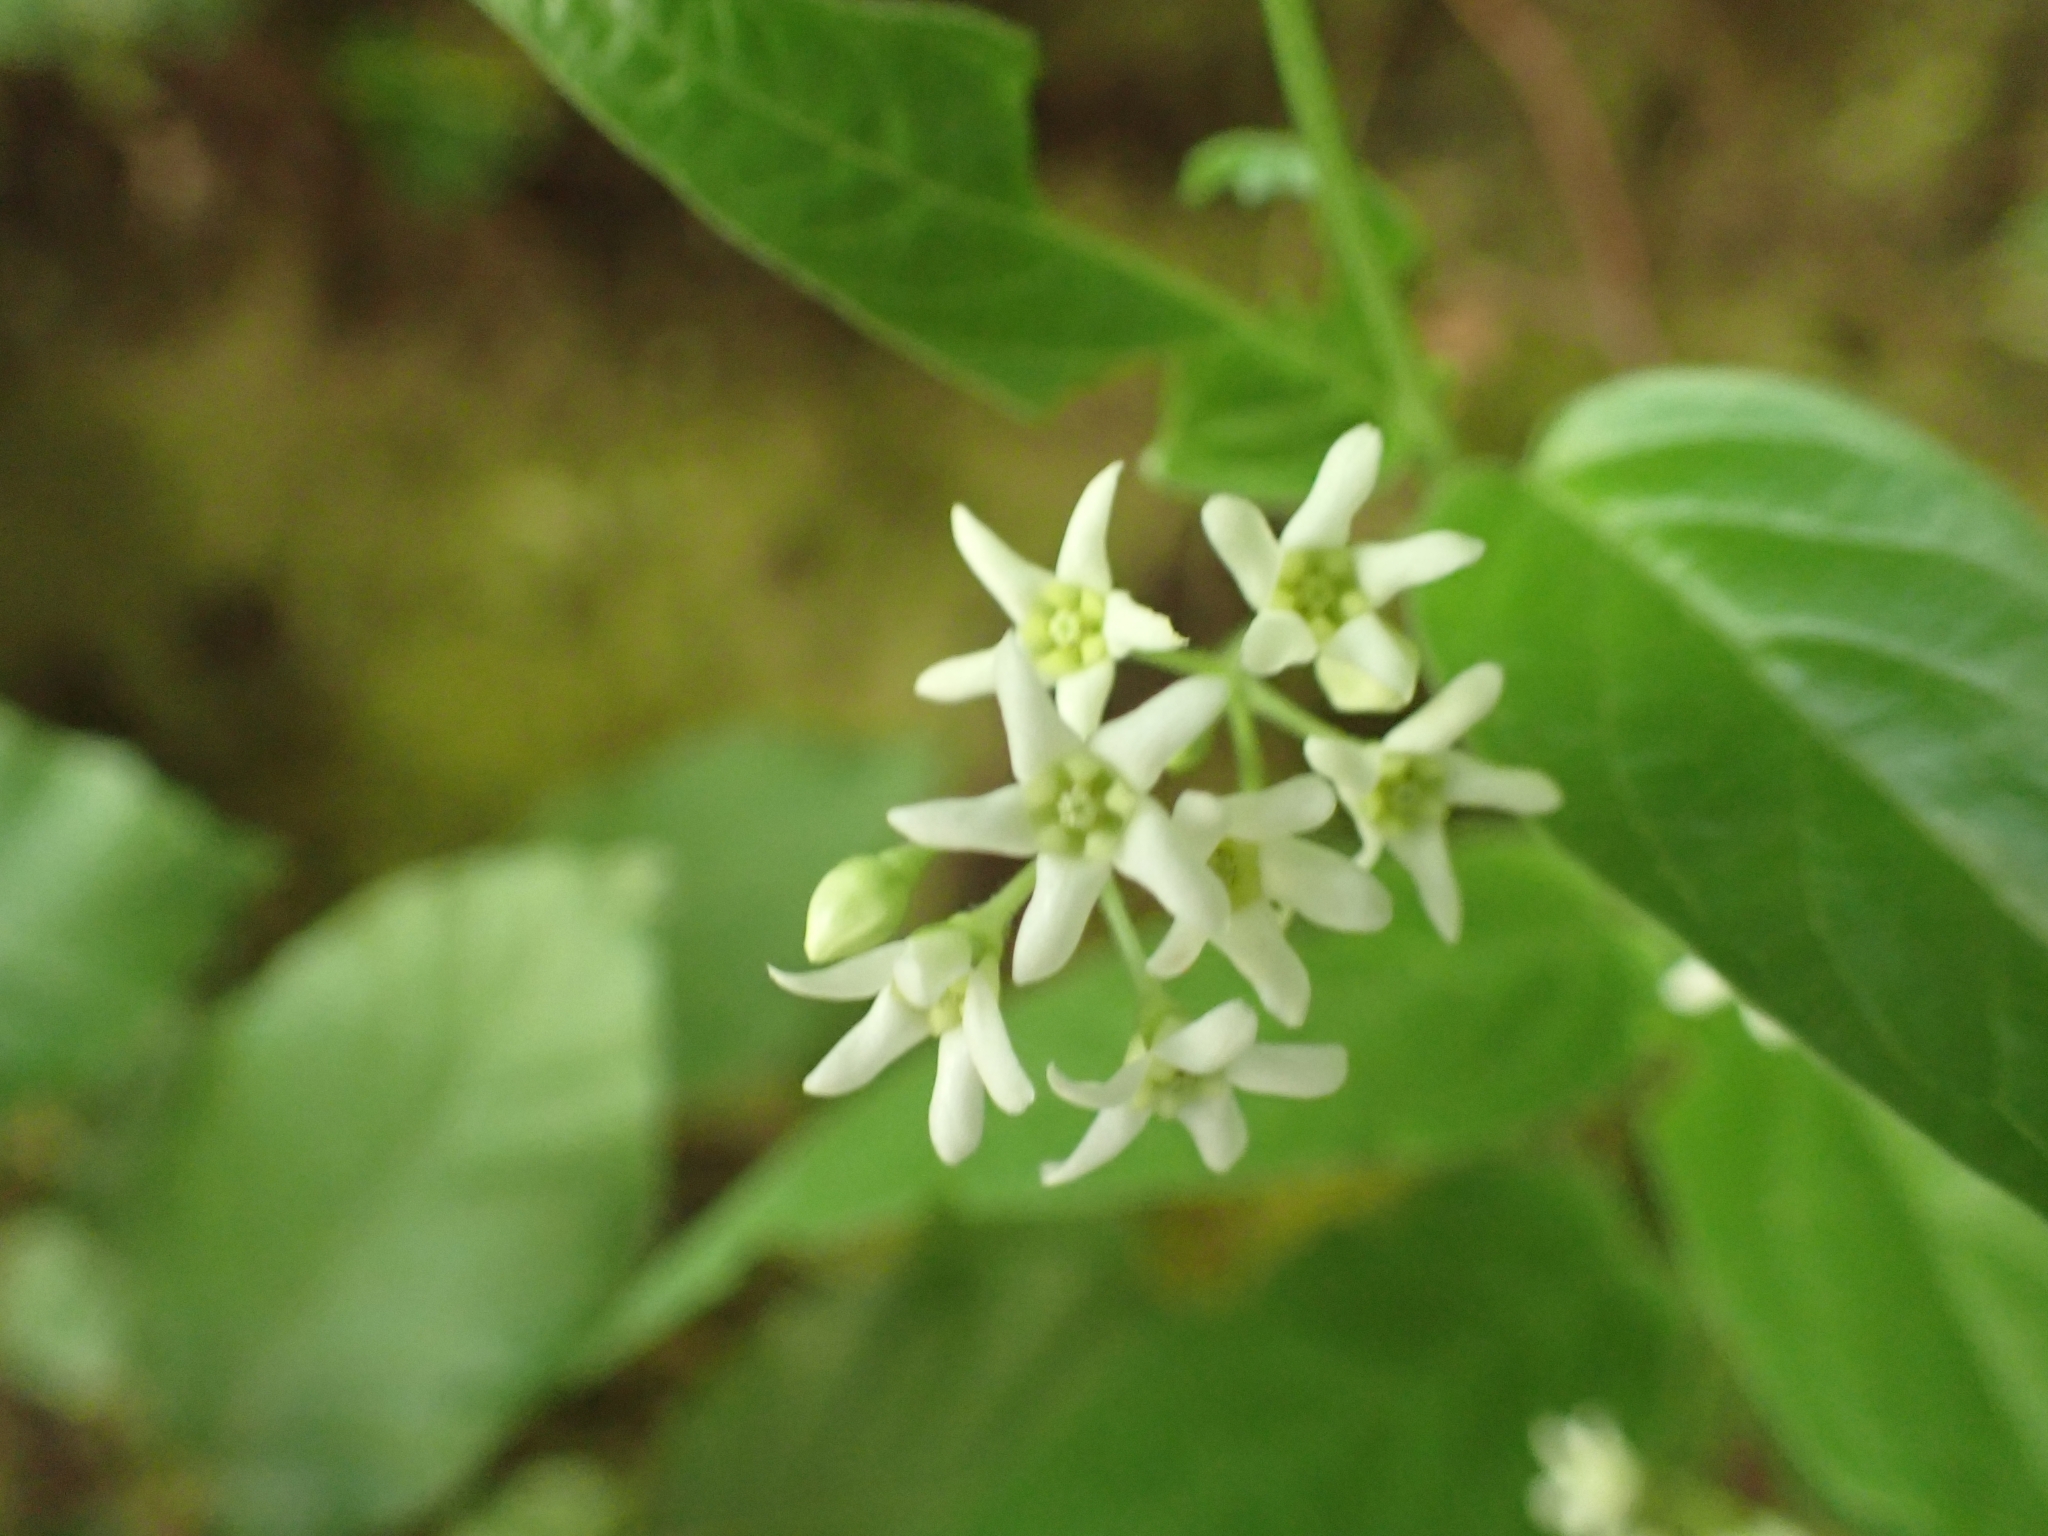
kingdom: Plantae
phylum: Tracheophyta
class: Magnoliopsida
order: Gentianales
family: Apocynaceae
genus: Vincetoxicum
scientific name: Vincetoxicum hirundinaria
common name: White swallowwort
